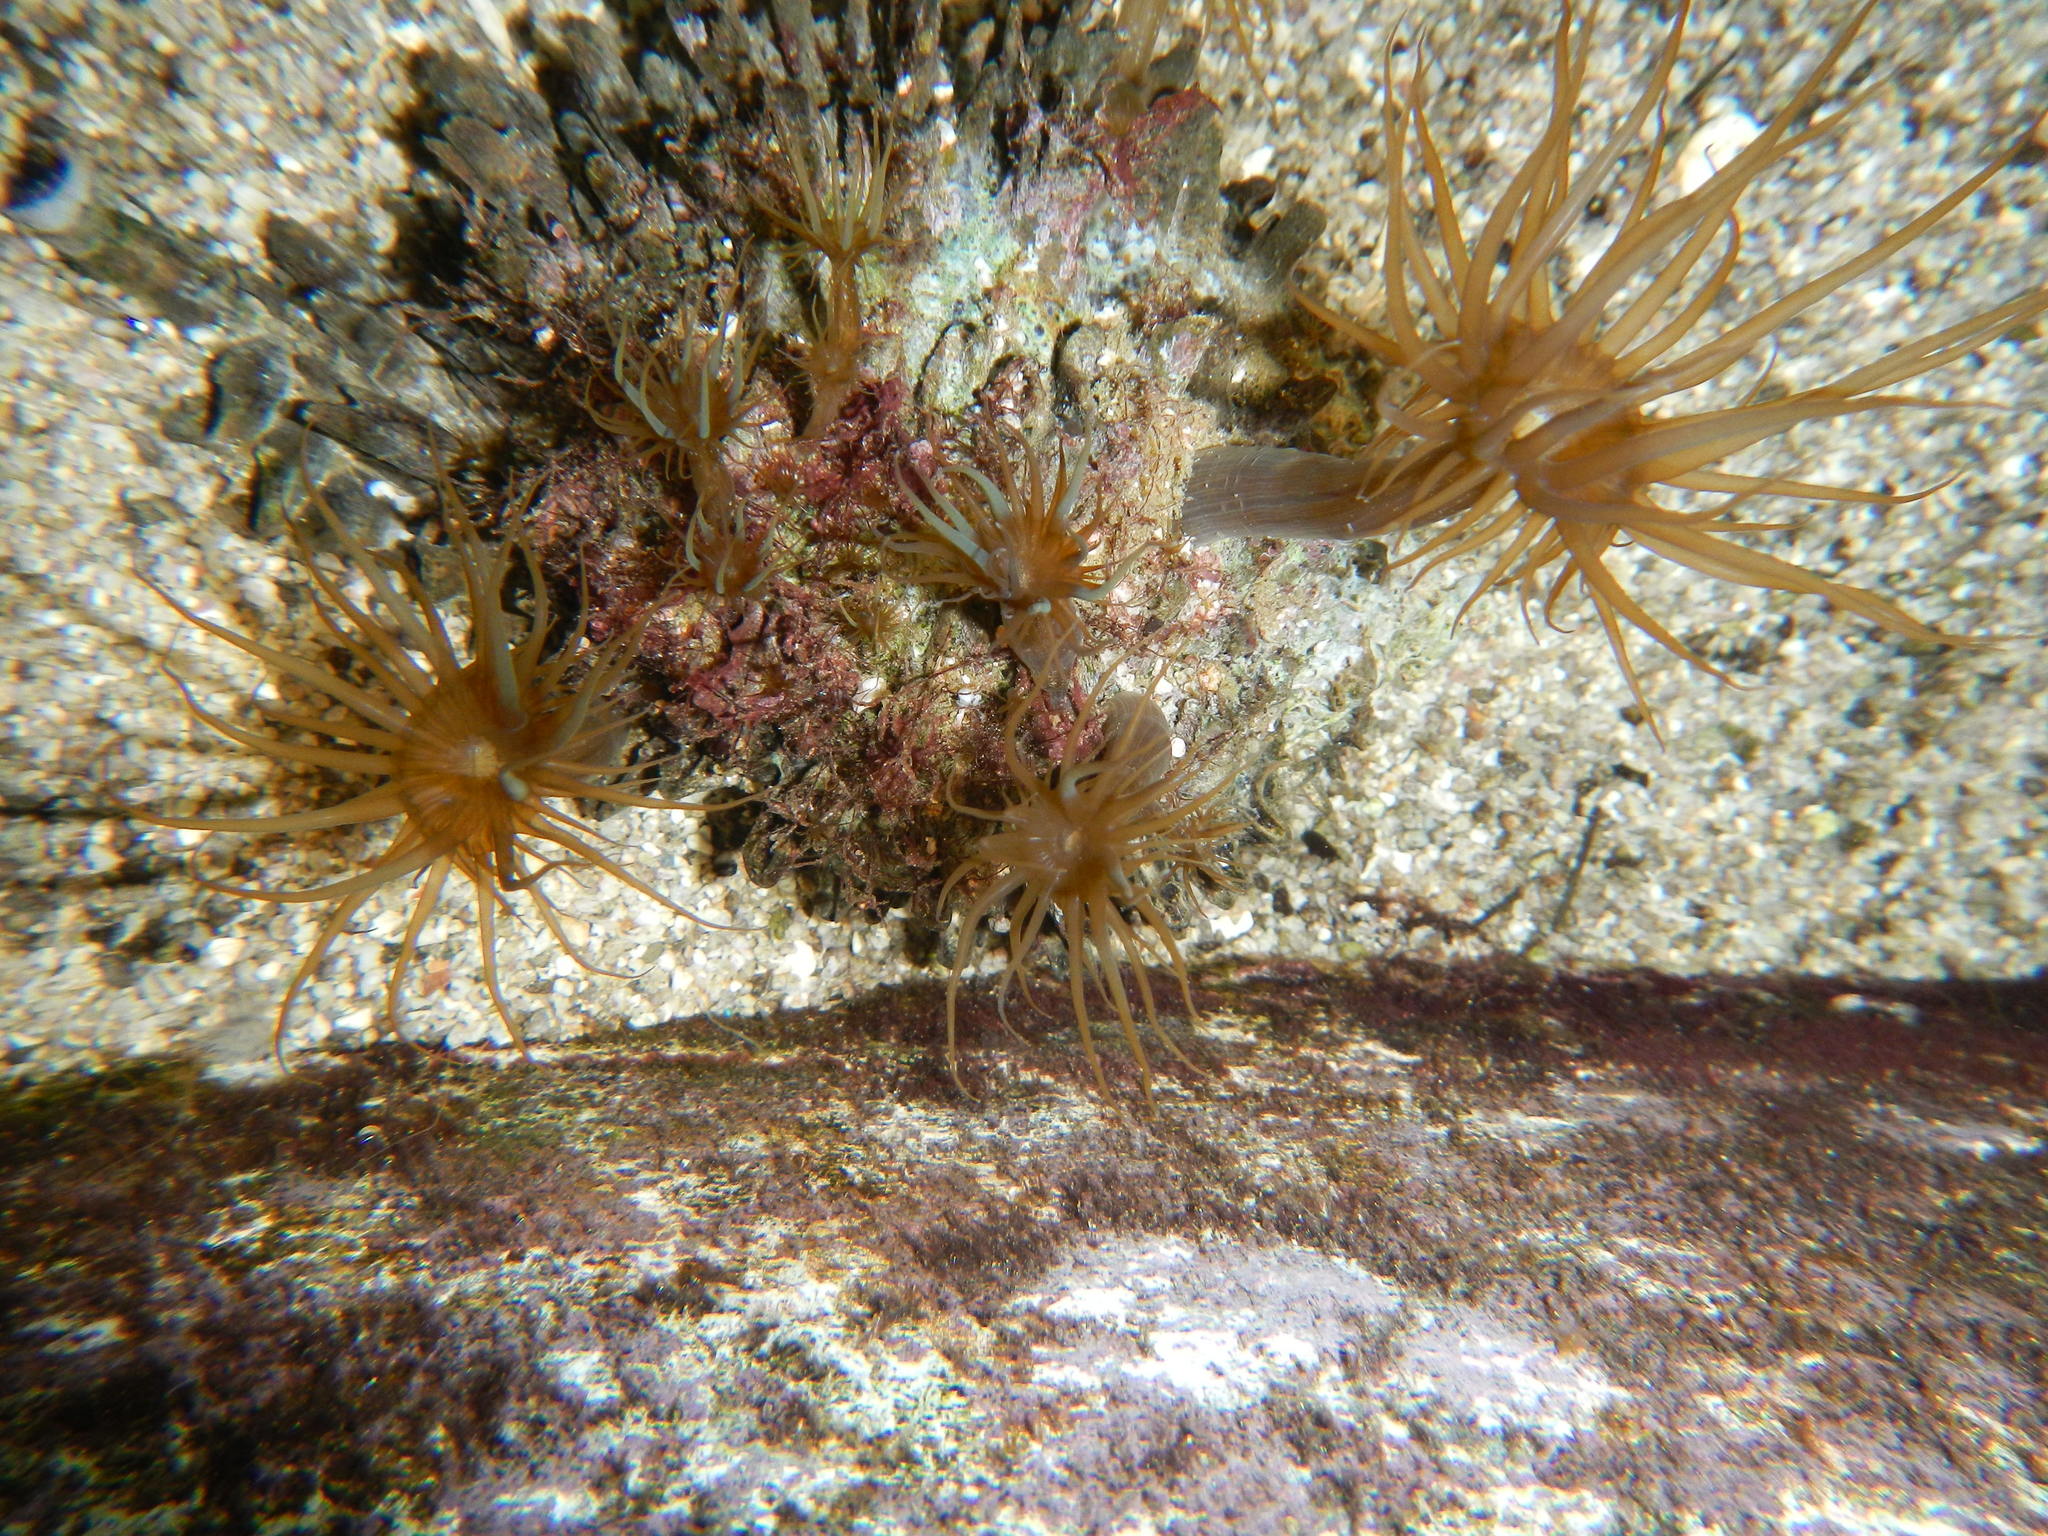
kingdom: Animalia
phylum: Cnidaria
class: Anthozoa
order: Actiniaria
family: Aiptasiidae
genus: Exaiptasia
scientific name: Exaiptasia diaphana
